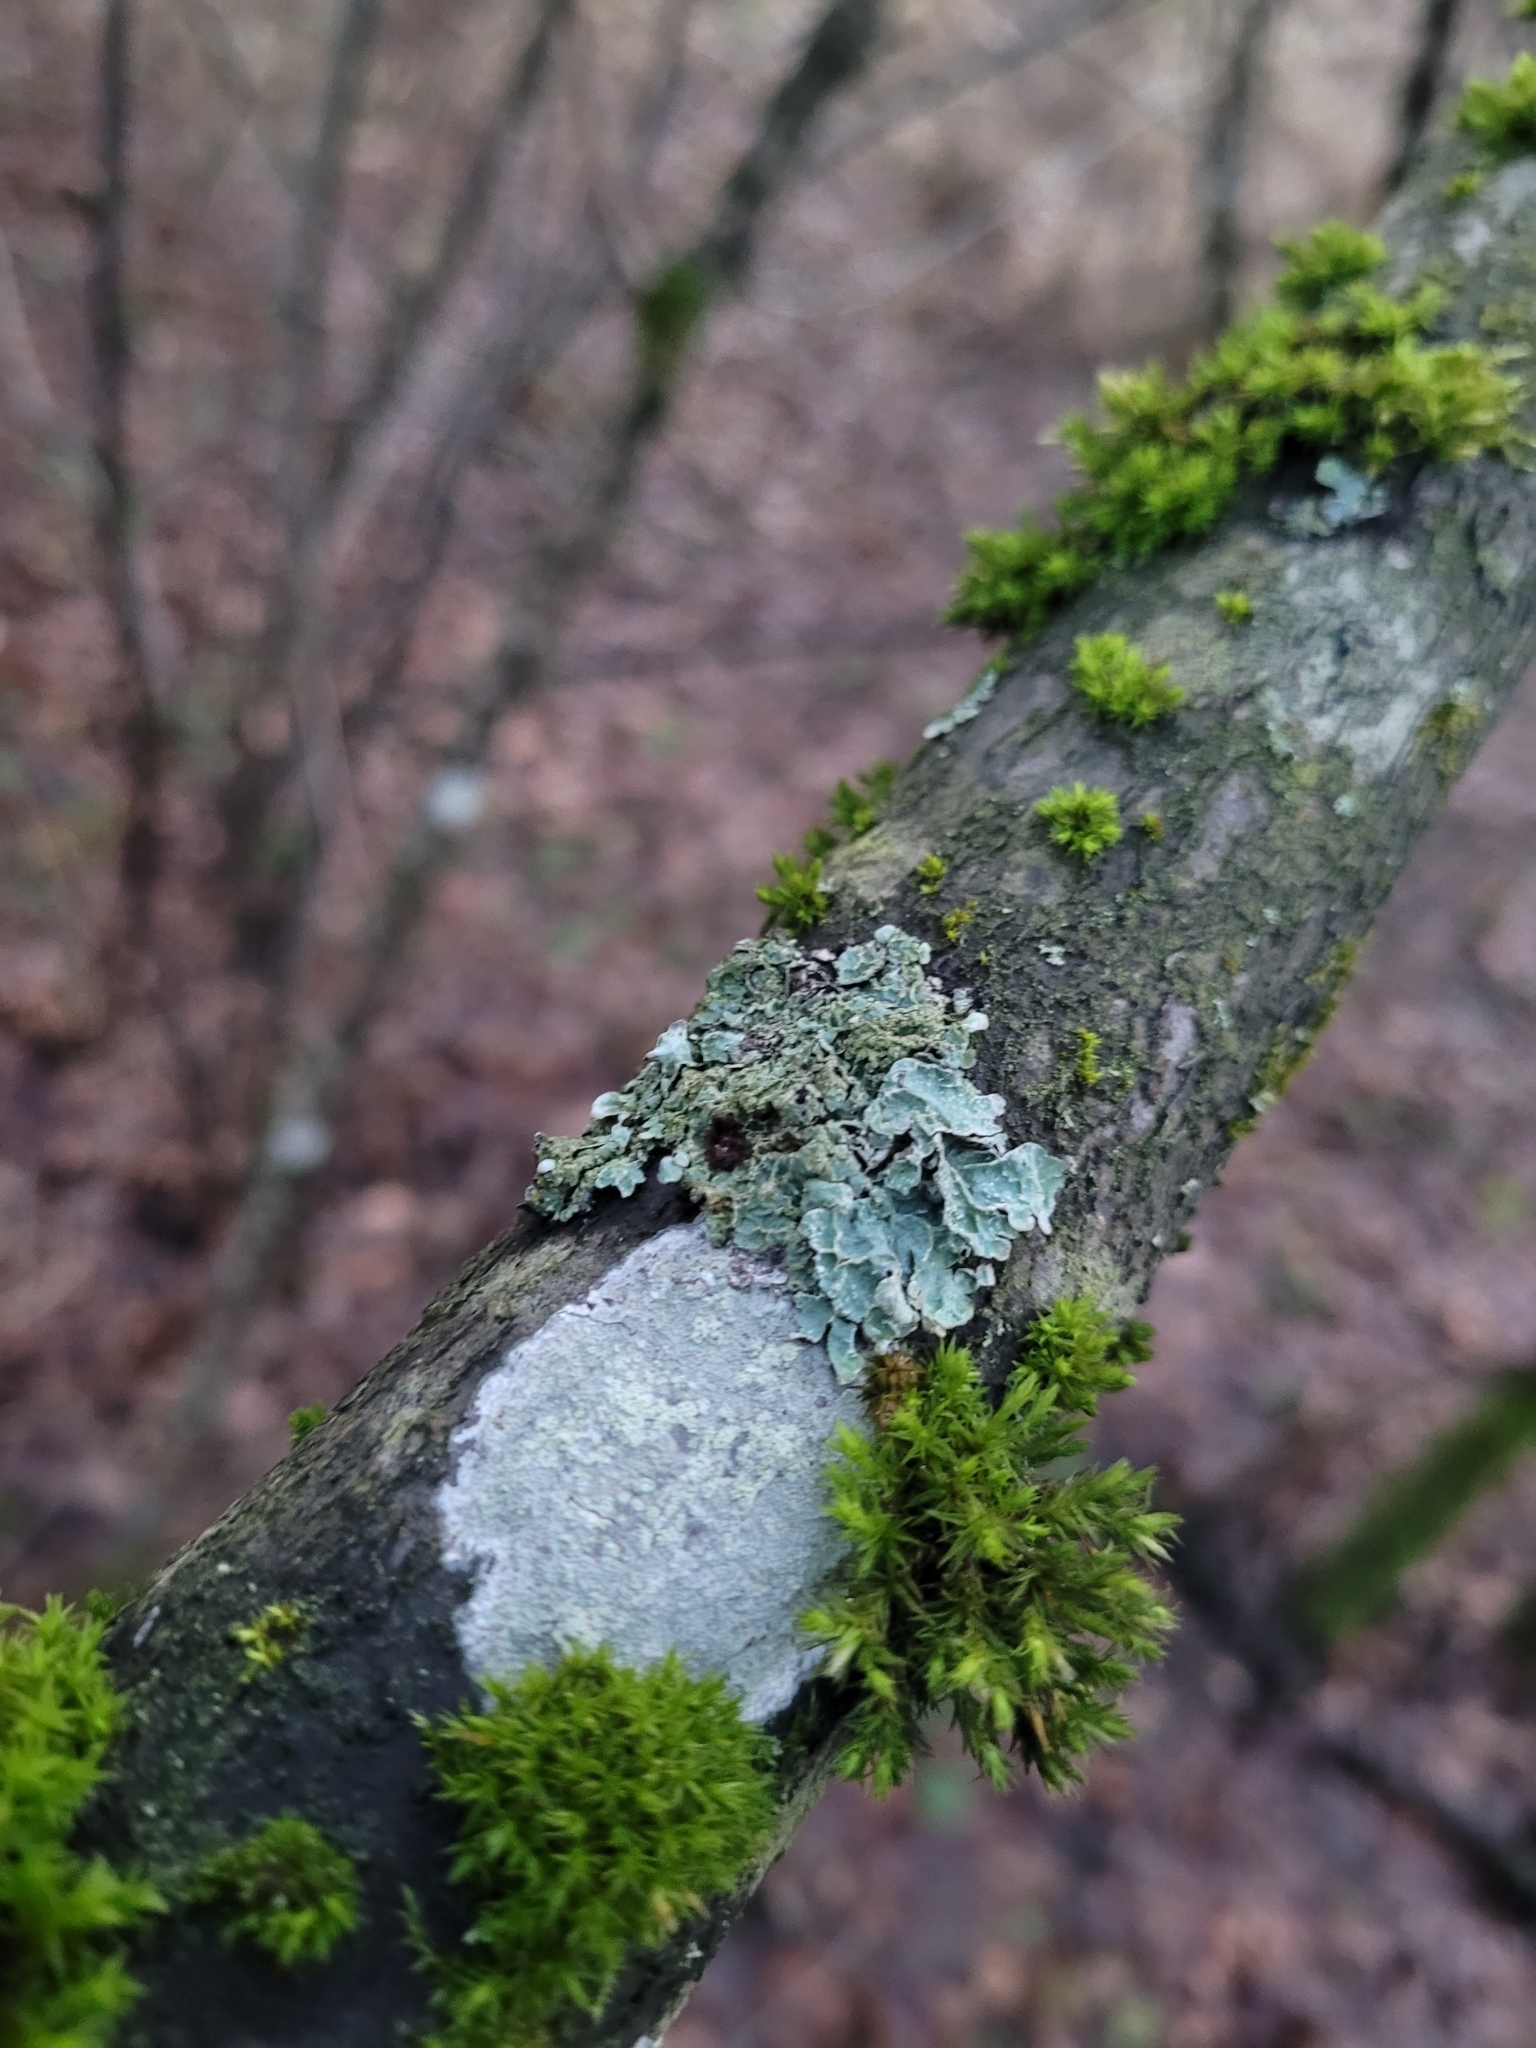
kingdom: Fungi
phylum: Ascomycota
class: Lecanoromycetes
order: Lecanorales
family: Parmeliaceae
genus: Parmelia
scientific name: Parmelia sulcata
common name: Netted shield lichen
